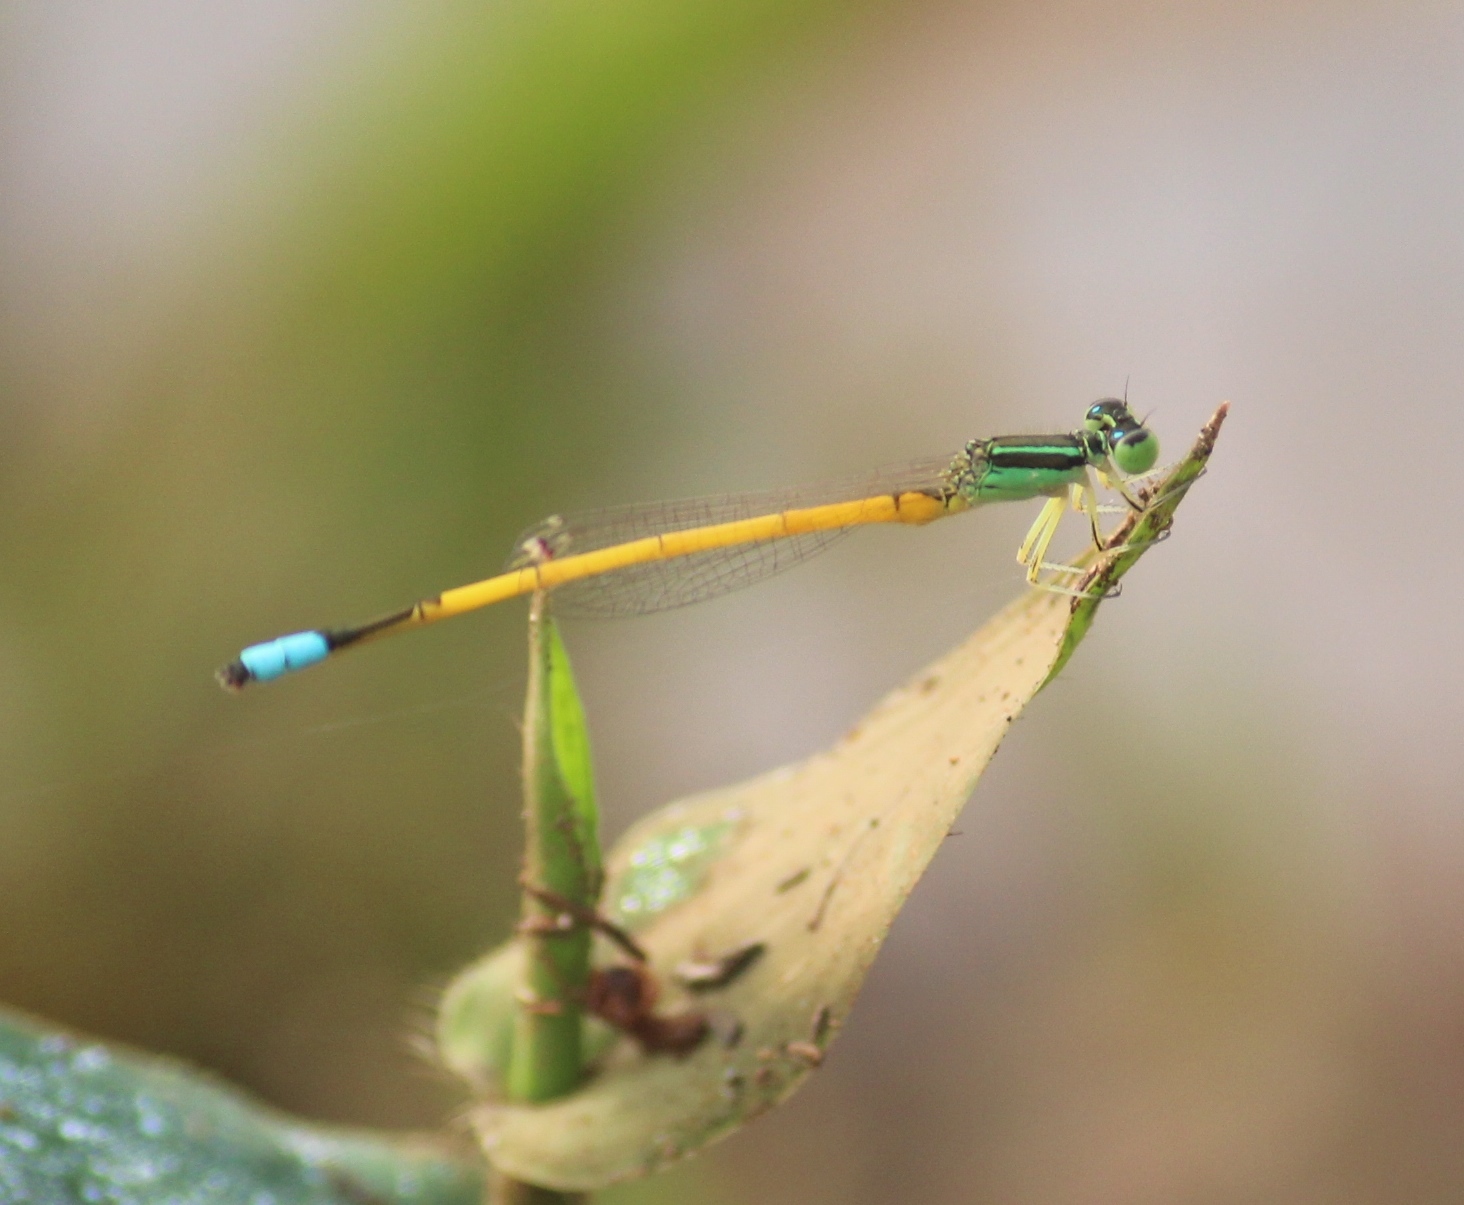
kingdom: Animalia
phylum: Arthropoda
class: Insecta
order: Odonata
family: Coenagrionidae
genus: Ischnura
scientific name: Ischnura rubilio
